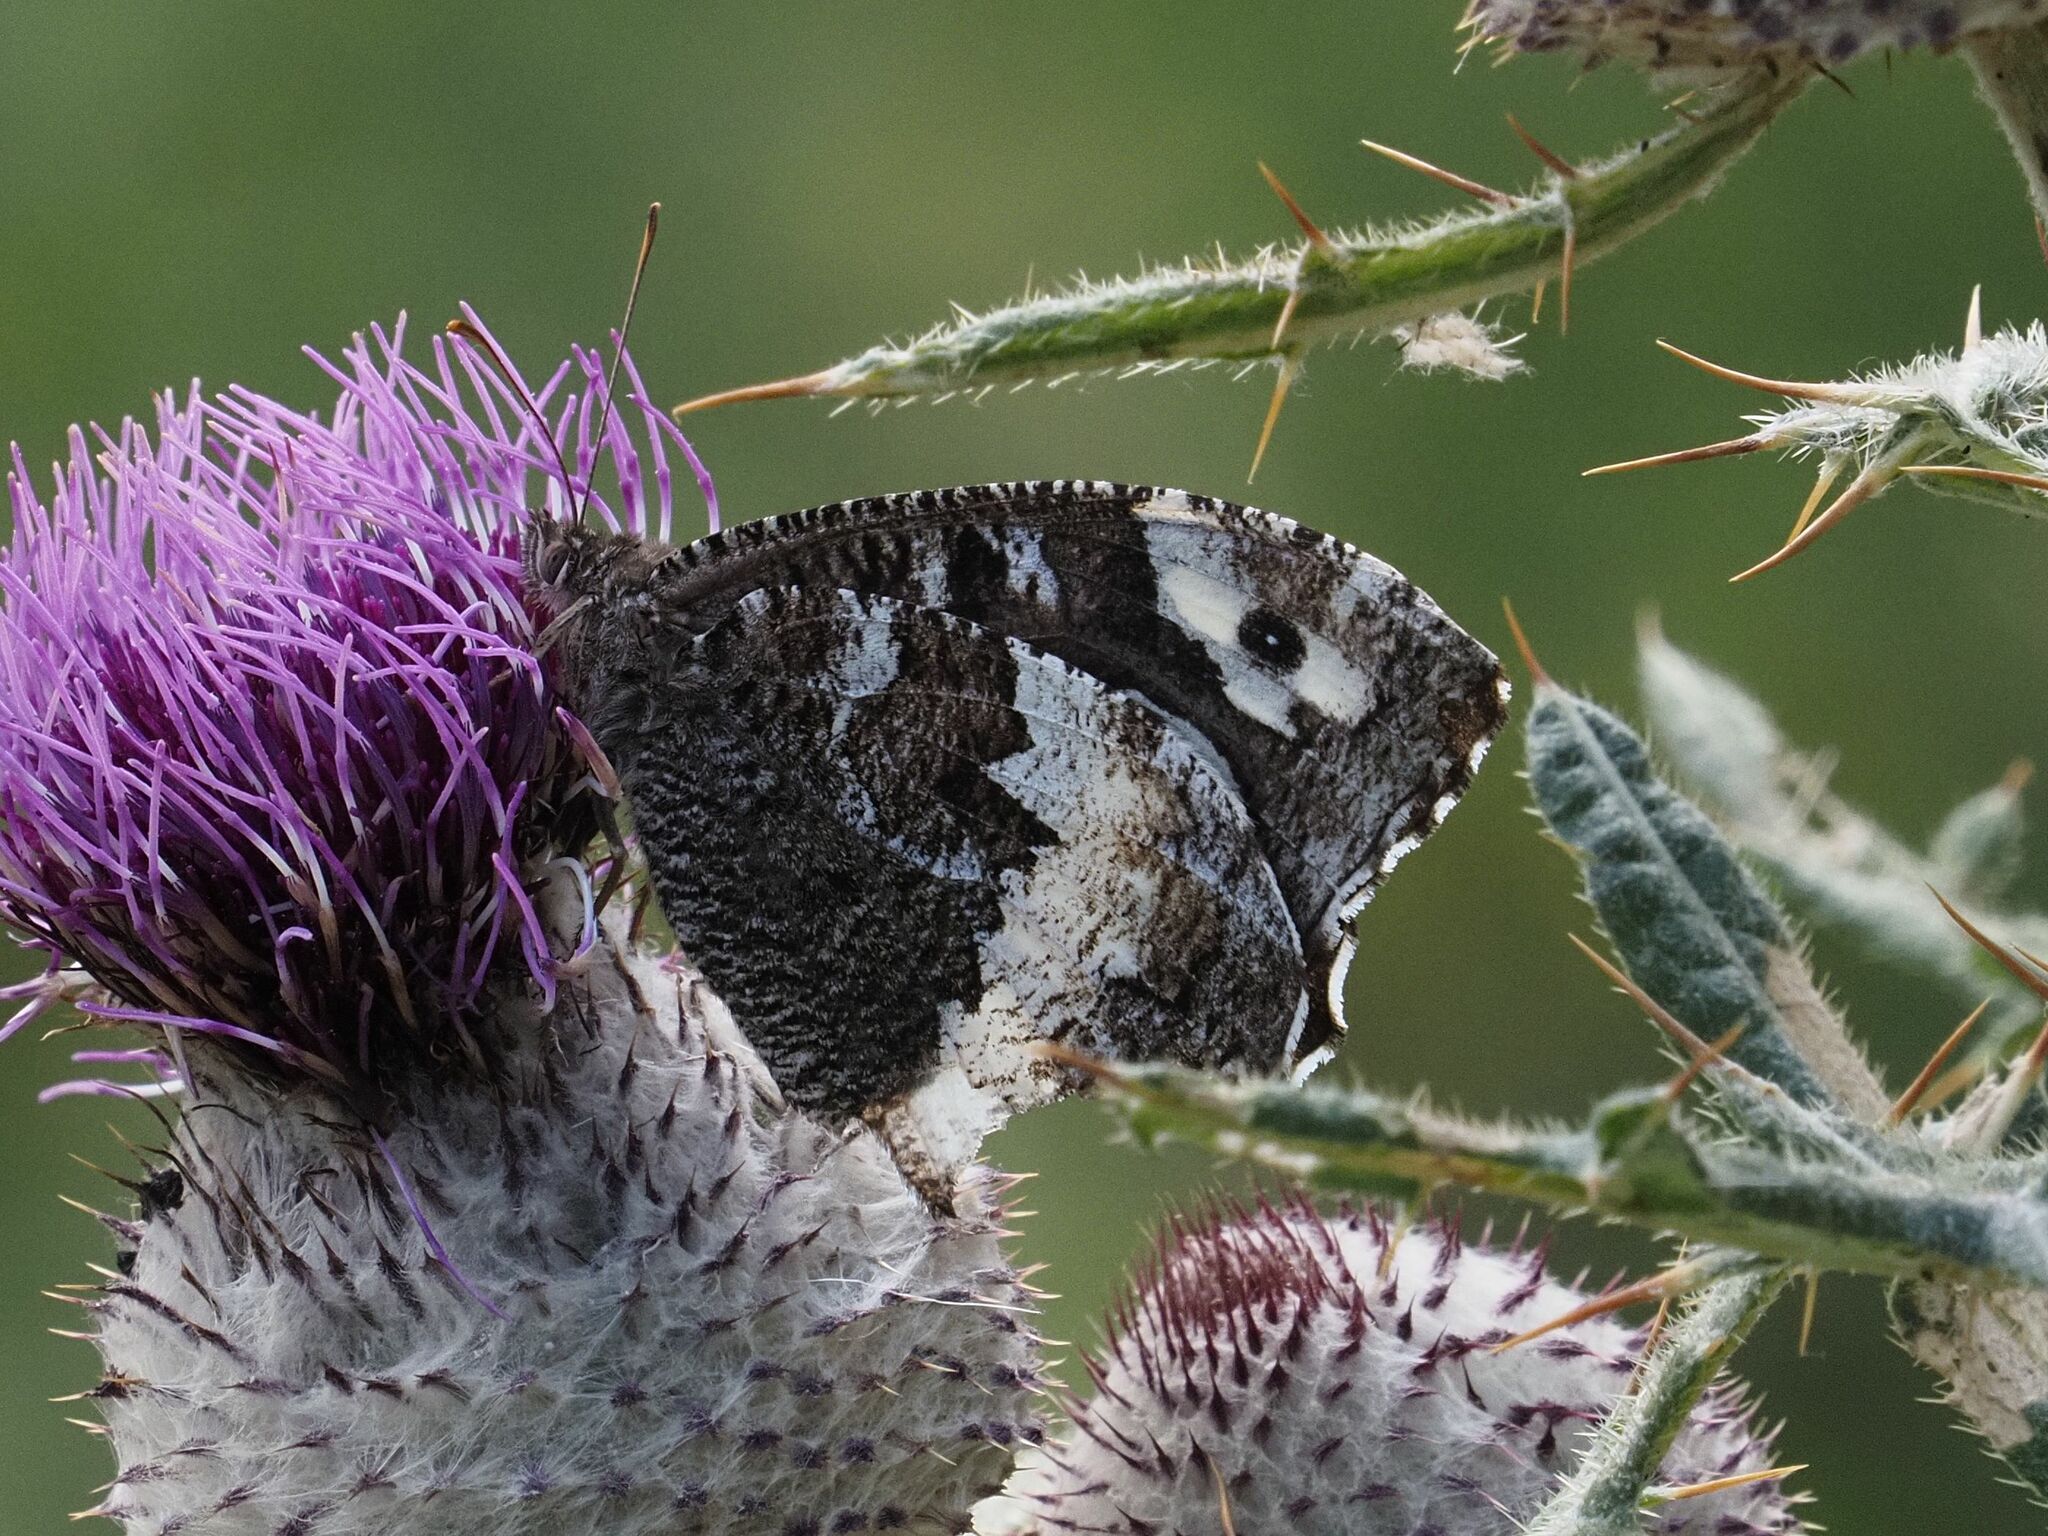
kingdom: Animalia
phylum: Arthropoda
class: Insecta
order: Lepidoptera
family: Lycaenidae
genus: Loweia
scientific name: Loweia tityrus
